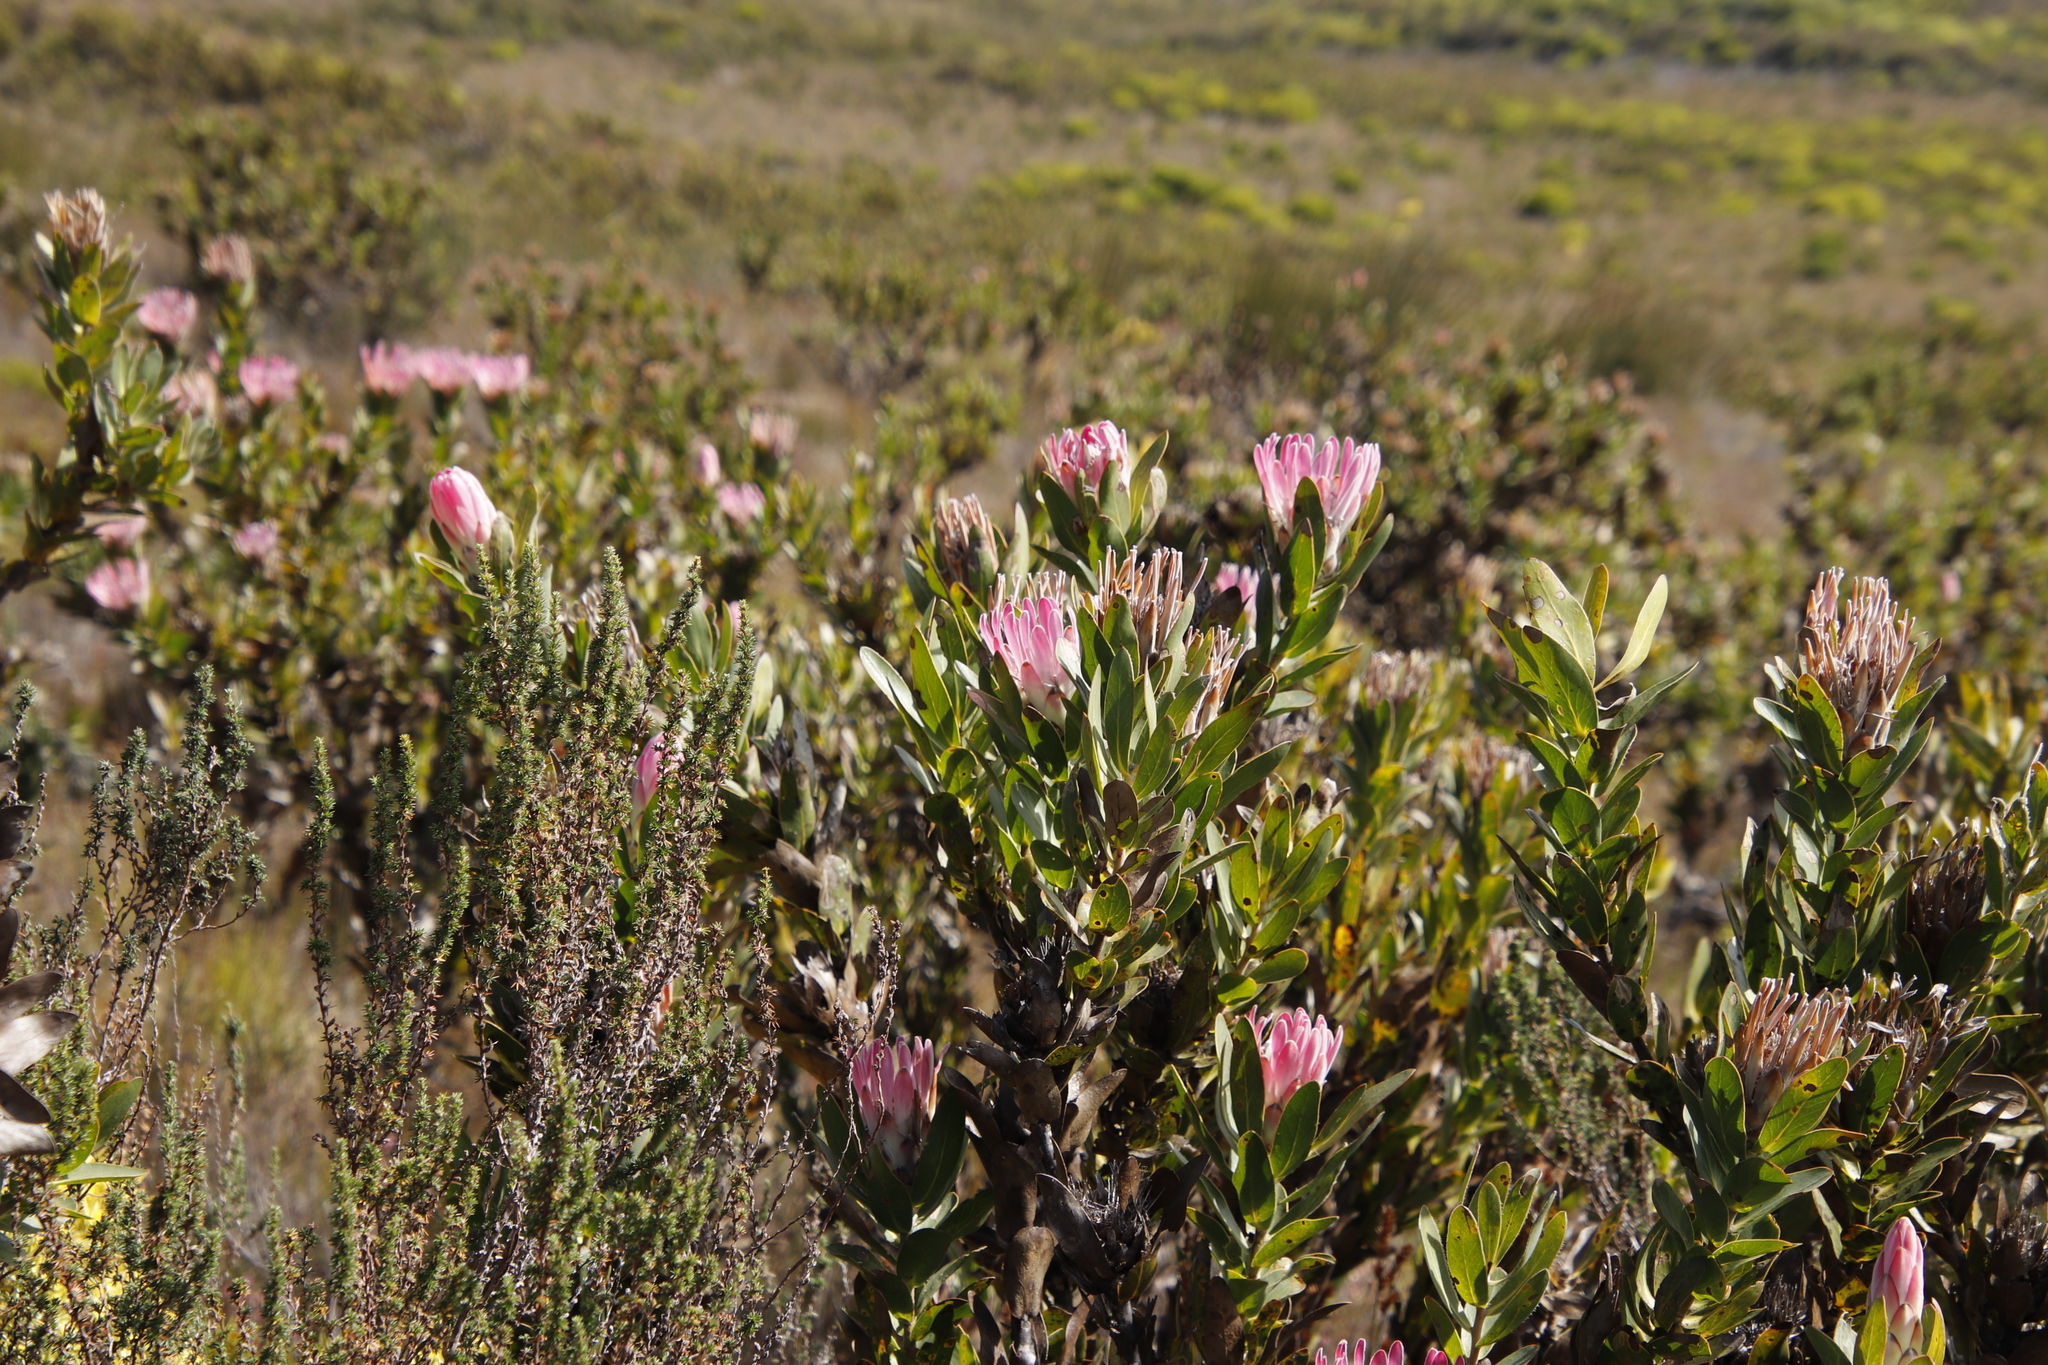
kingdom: Plantae
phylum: Tracheophyta
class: Magnoliopsida
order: Proteales
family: Proteaceae
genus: Protea
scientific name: Protea compacta
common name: Bot river protea
